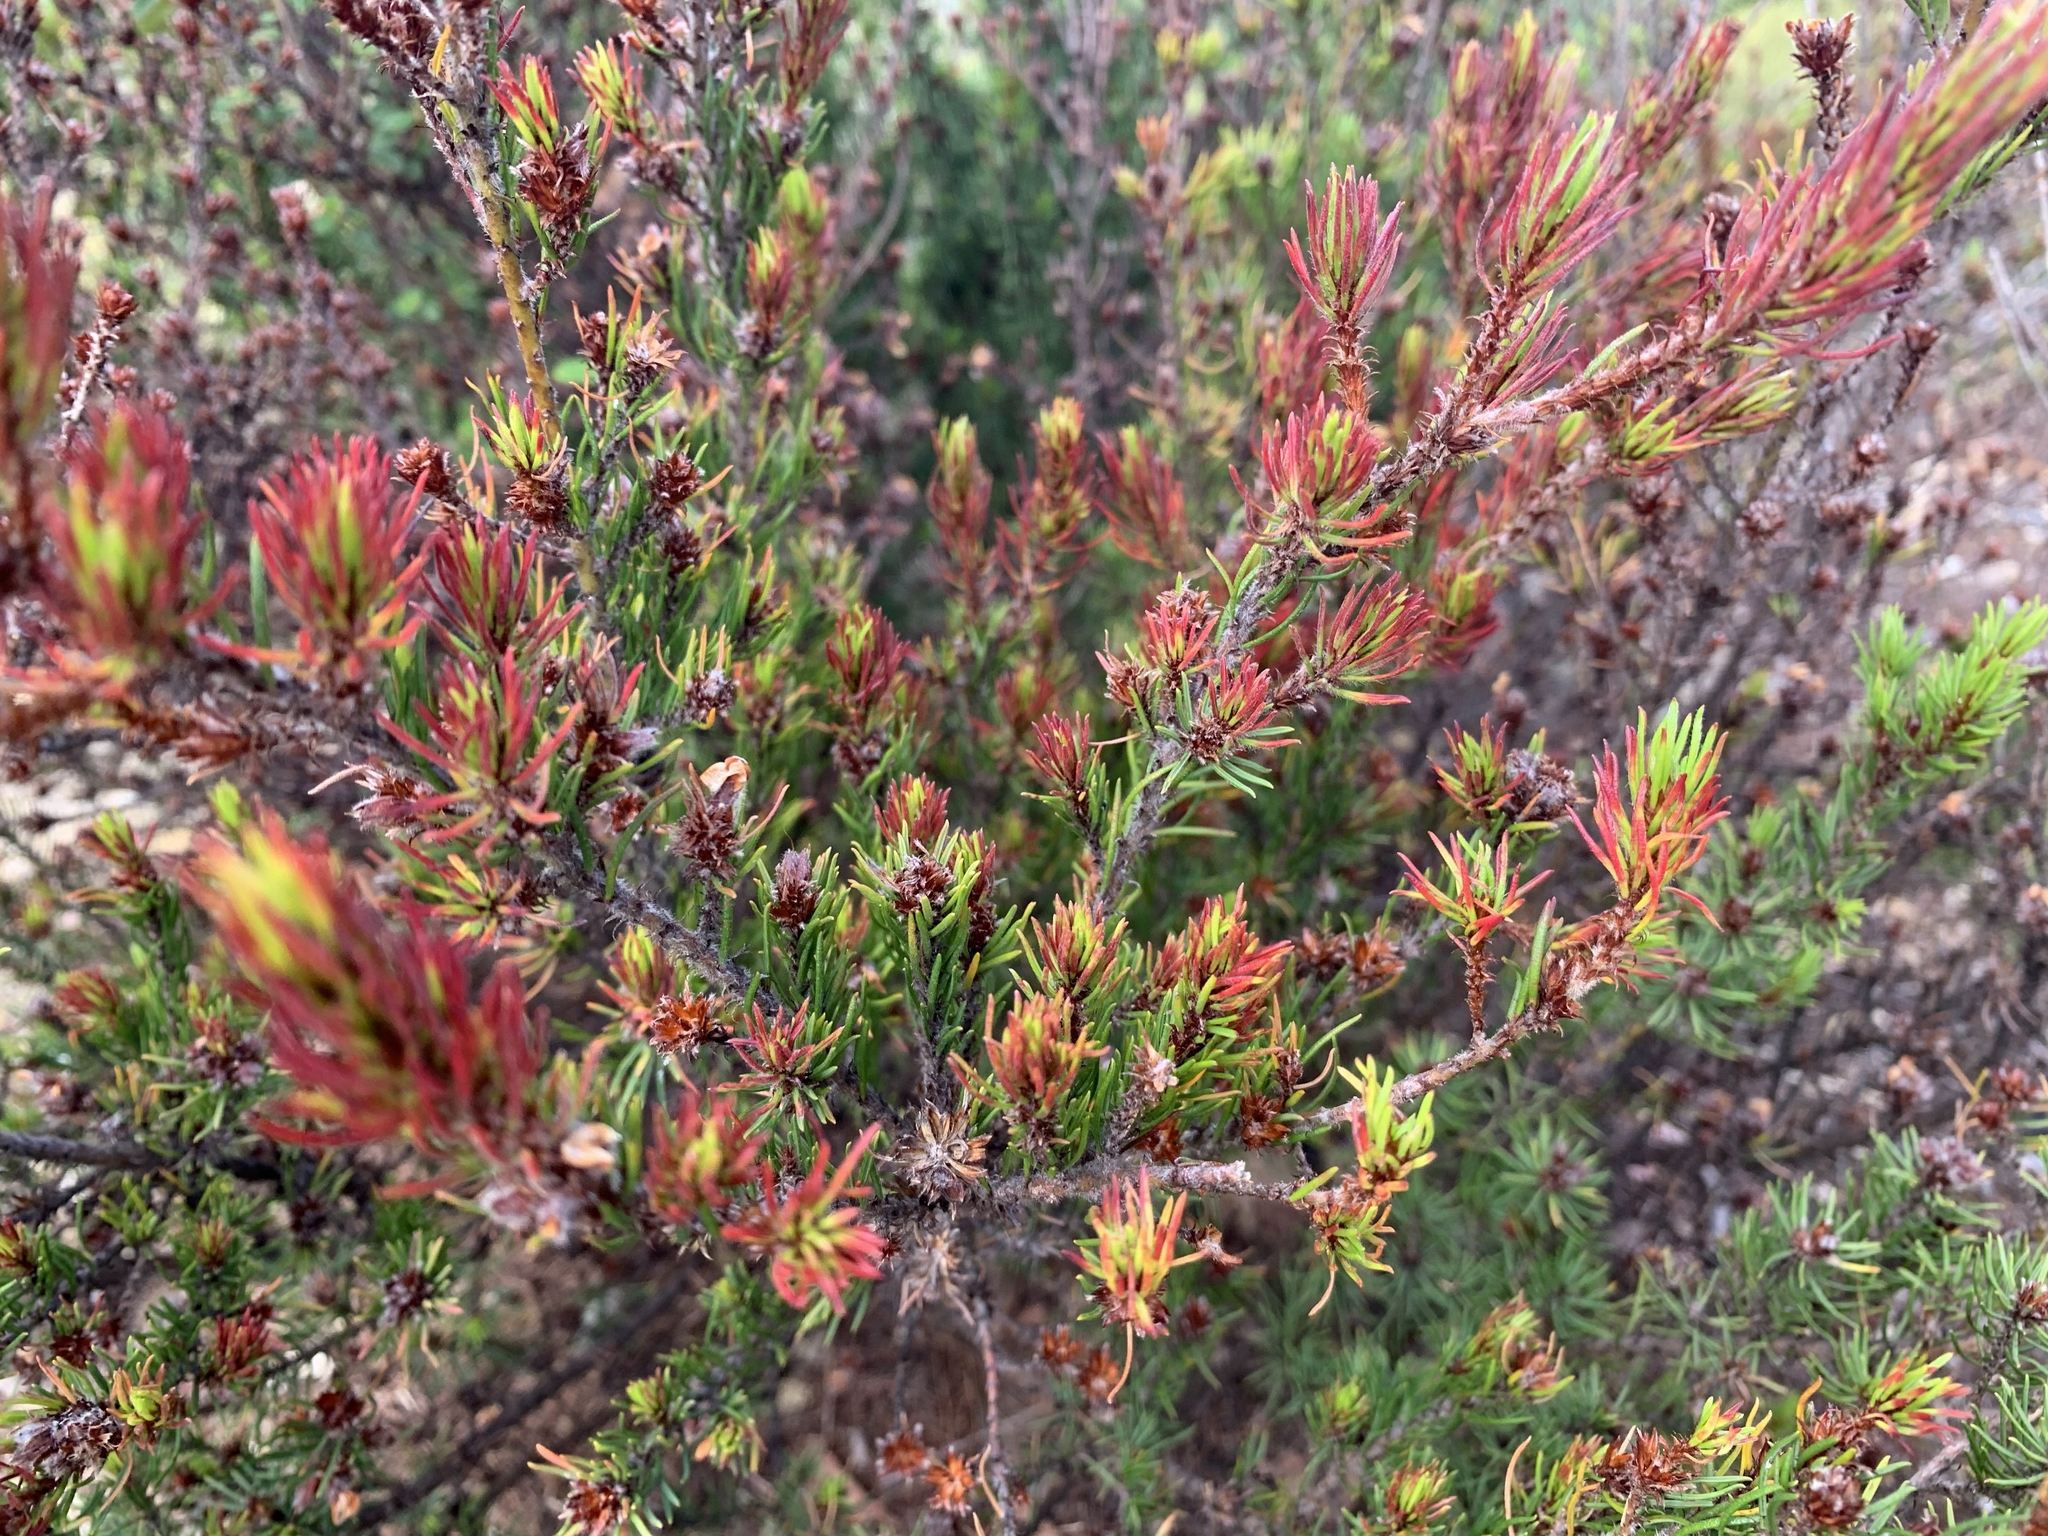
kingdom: Plantae
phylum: Tracheophyta
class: Magnoliopsida
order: Fabales
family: Fabaceae
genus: Pultenaea
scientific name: Pultenaea mollis
